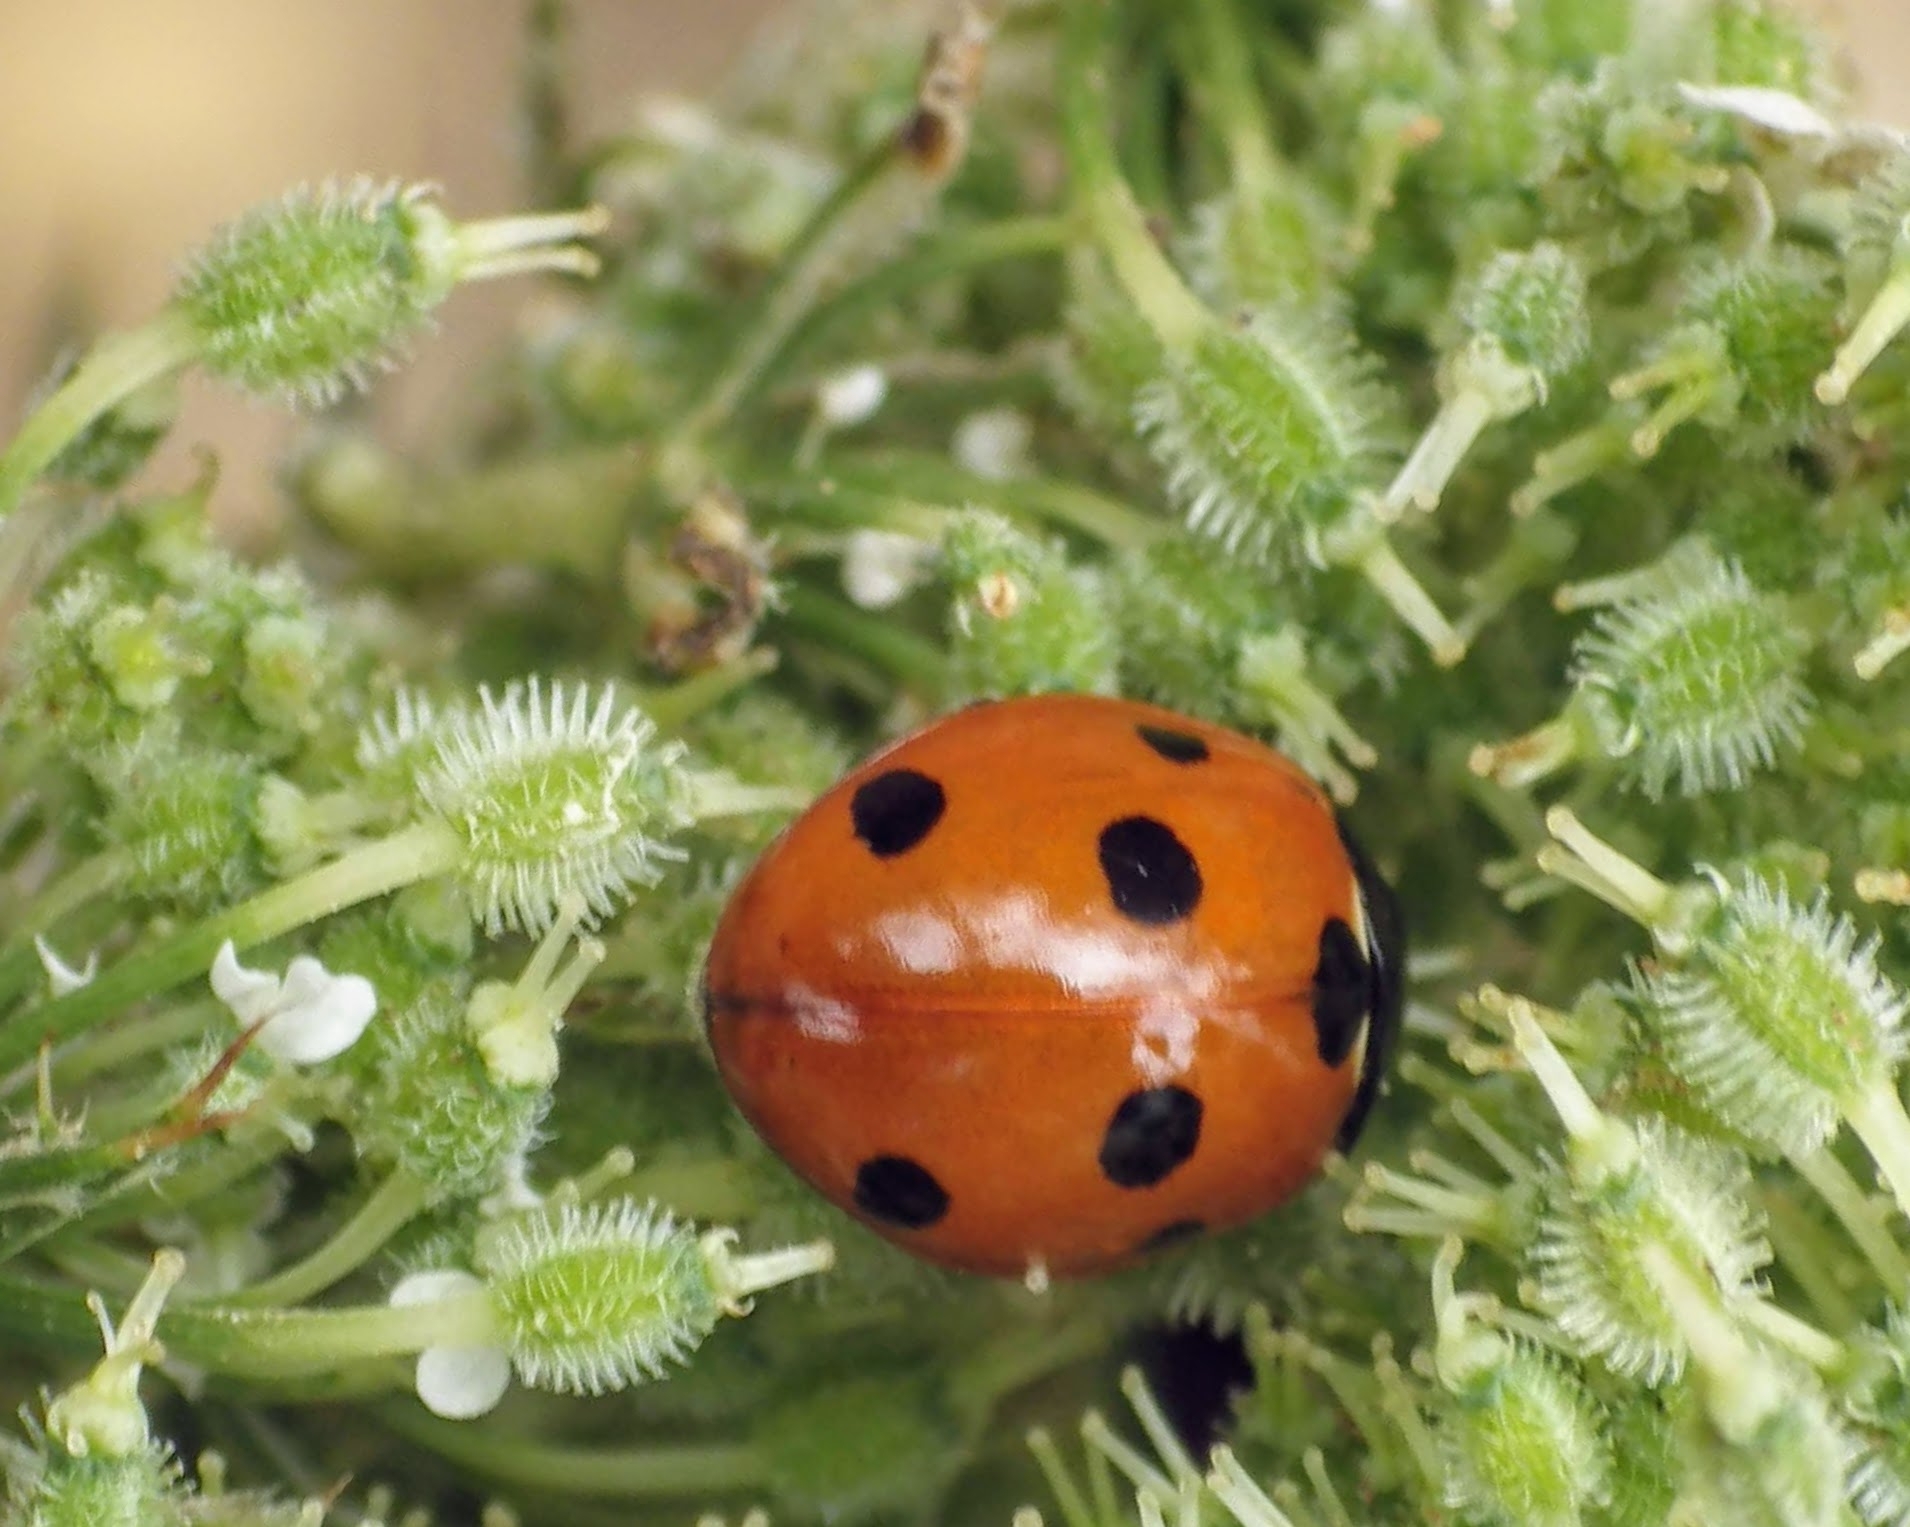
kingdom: Animalia
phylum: Arthropoda
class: Insecta
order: Coleoptera
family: Coccinellidae
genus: Coccinella
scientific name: Coccinella septempunctata
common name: Sevenspotted lady beetle
